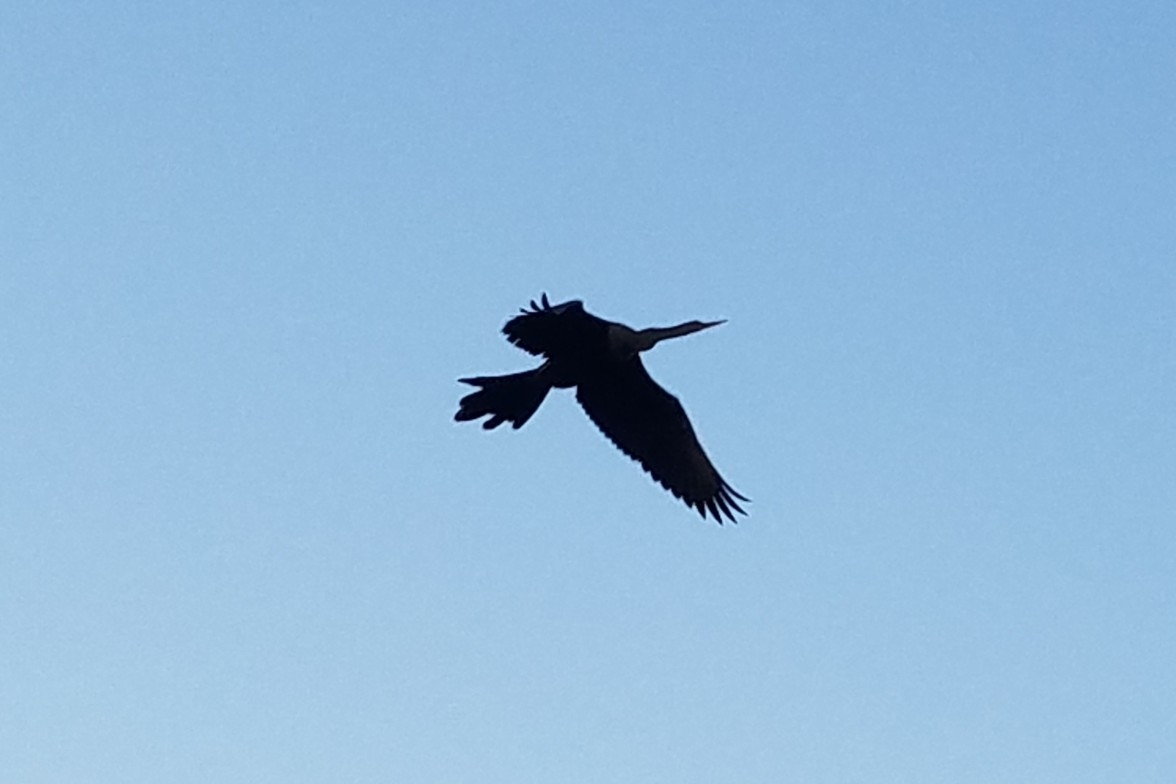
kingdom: Animalia
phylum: Chordata
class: Aves
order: Suliformes
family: Anhingidae
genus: Anhinga
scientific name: Anhinga anhinga
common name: Anhinga
